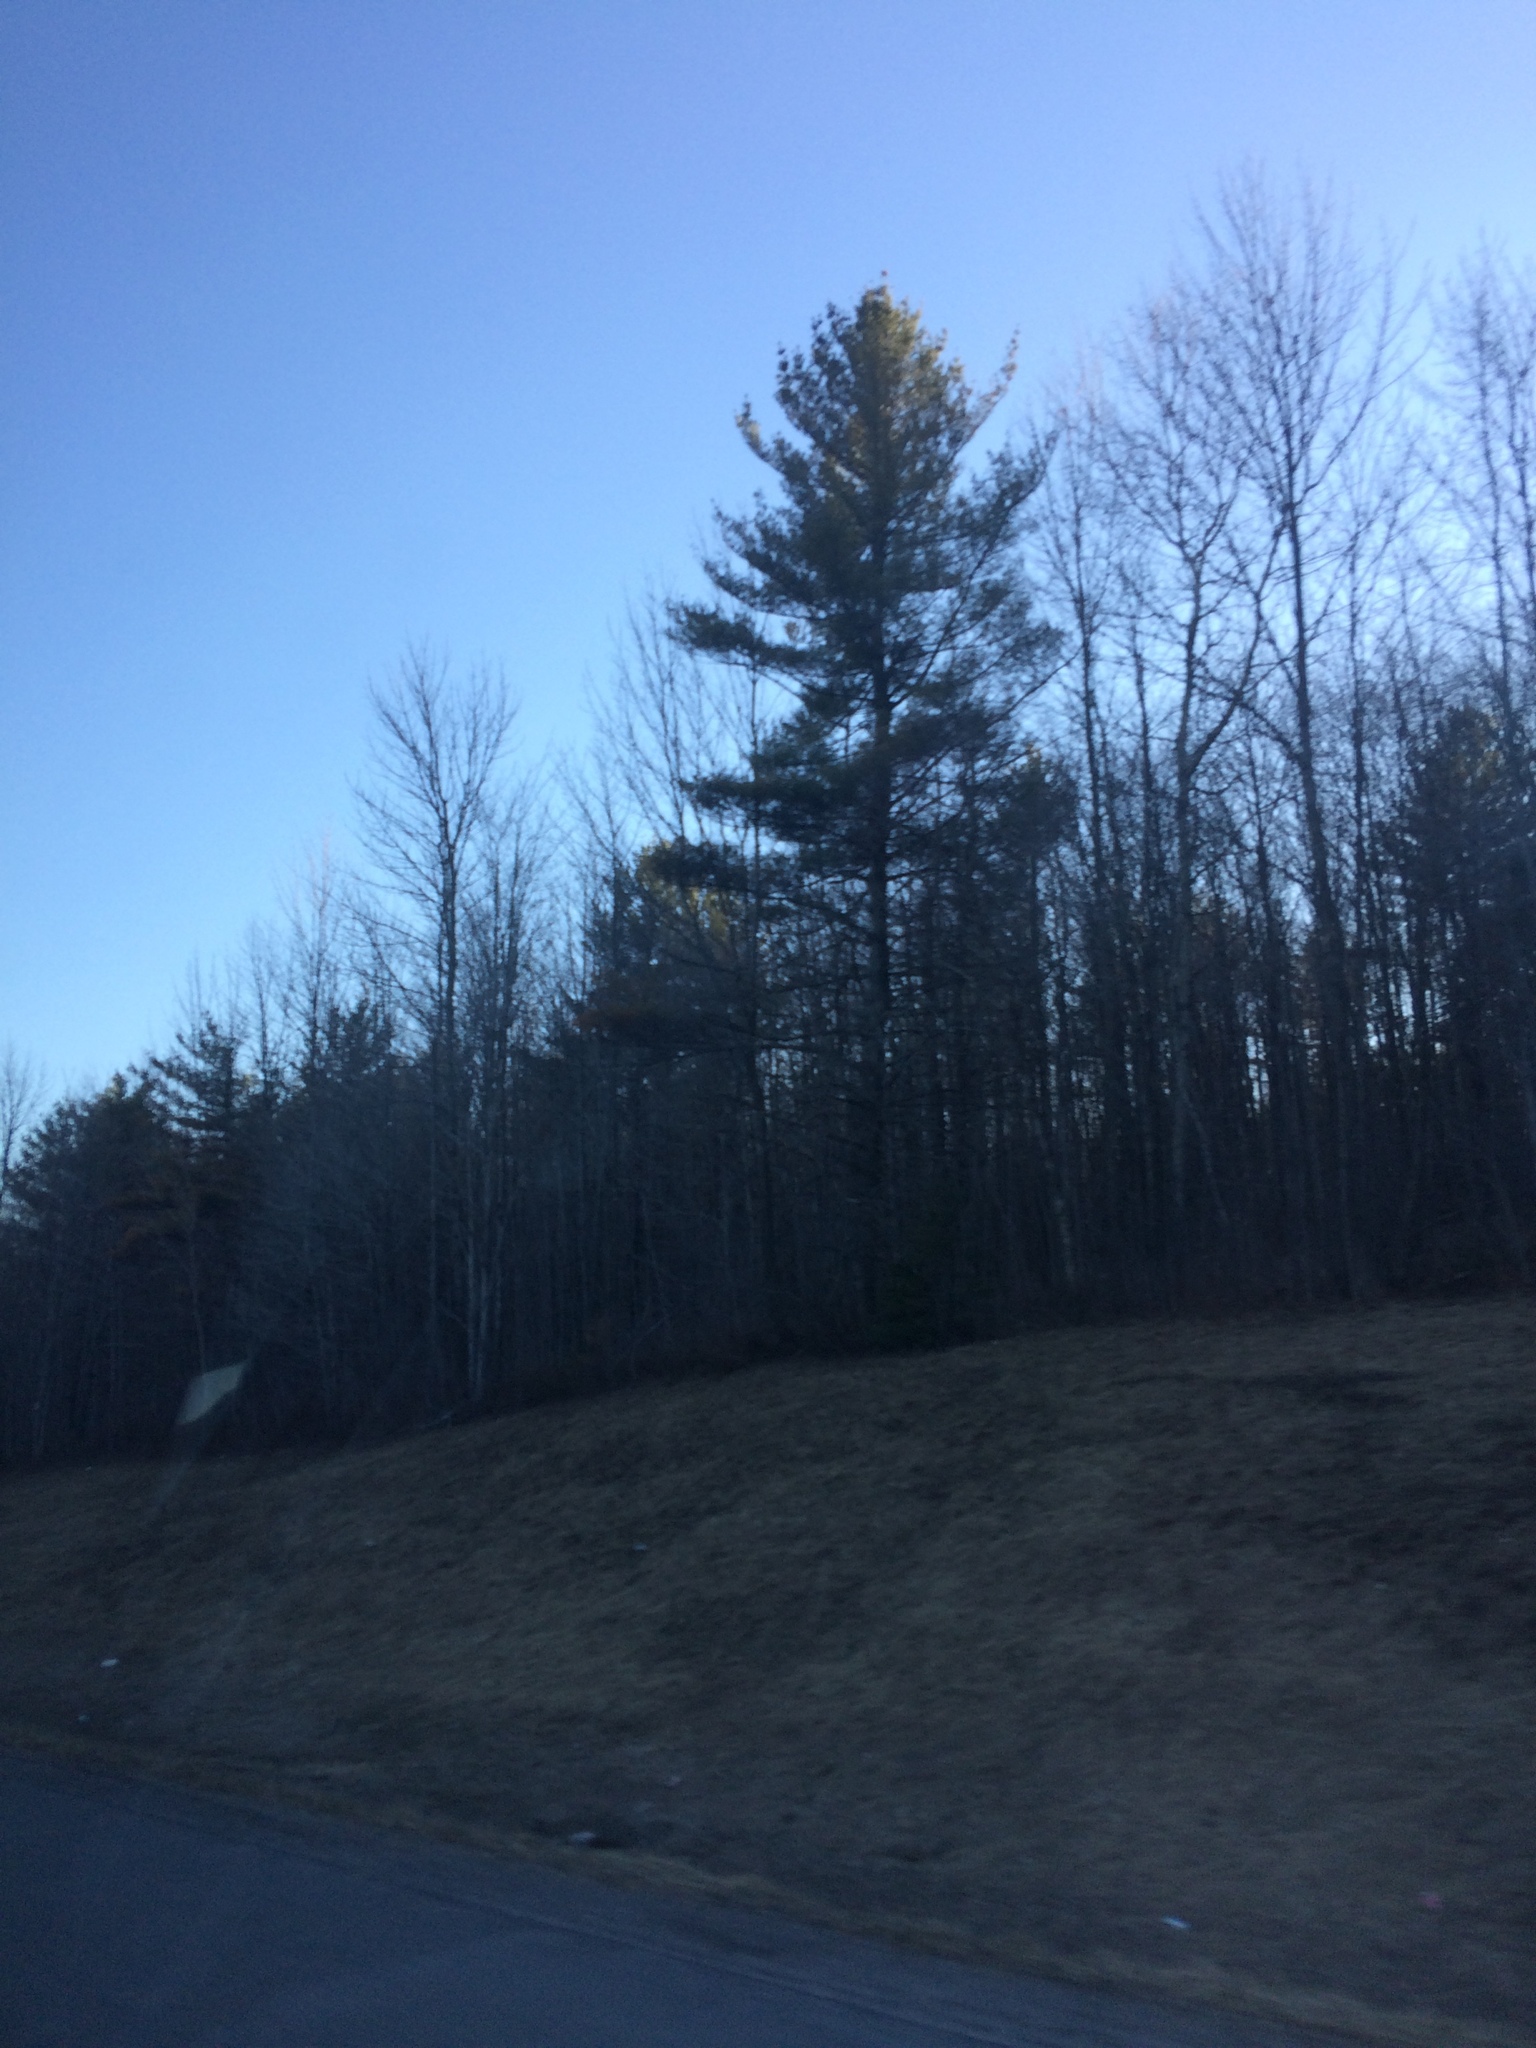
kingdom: Plantae
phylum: Tracheophyta
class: Pinopsida
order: Pinales
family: Pinaceae
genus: Pinus
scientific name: Pinus strobus
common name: Weymouth pine
